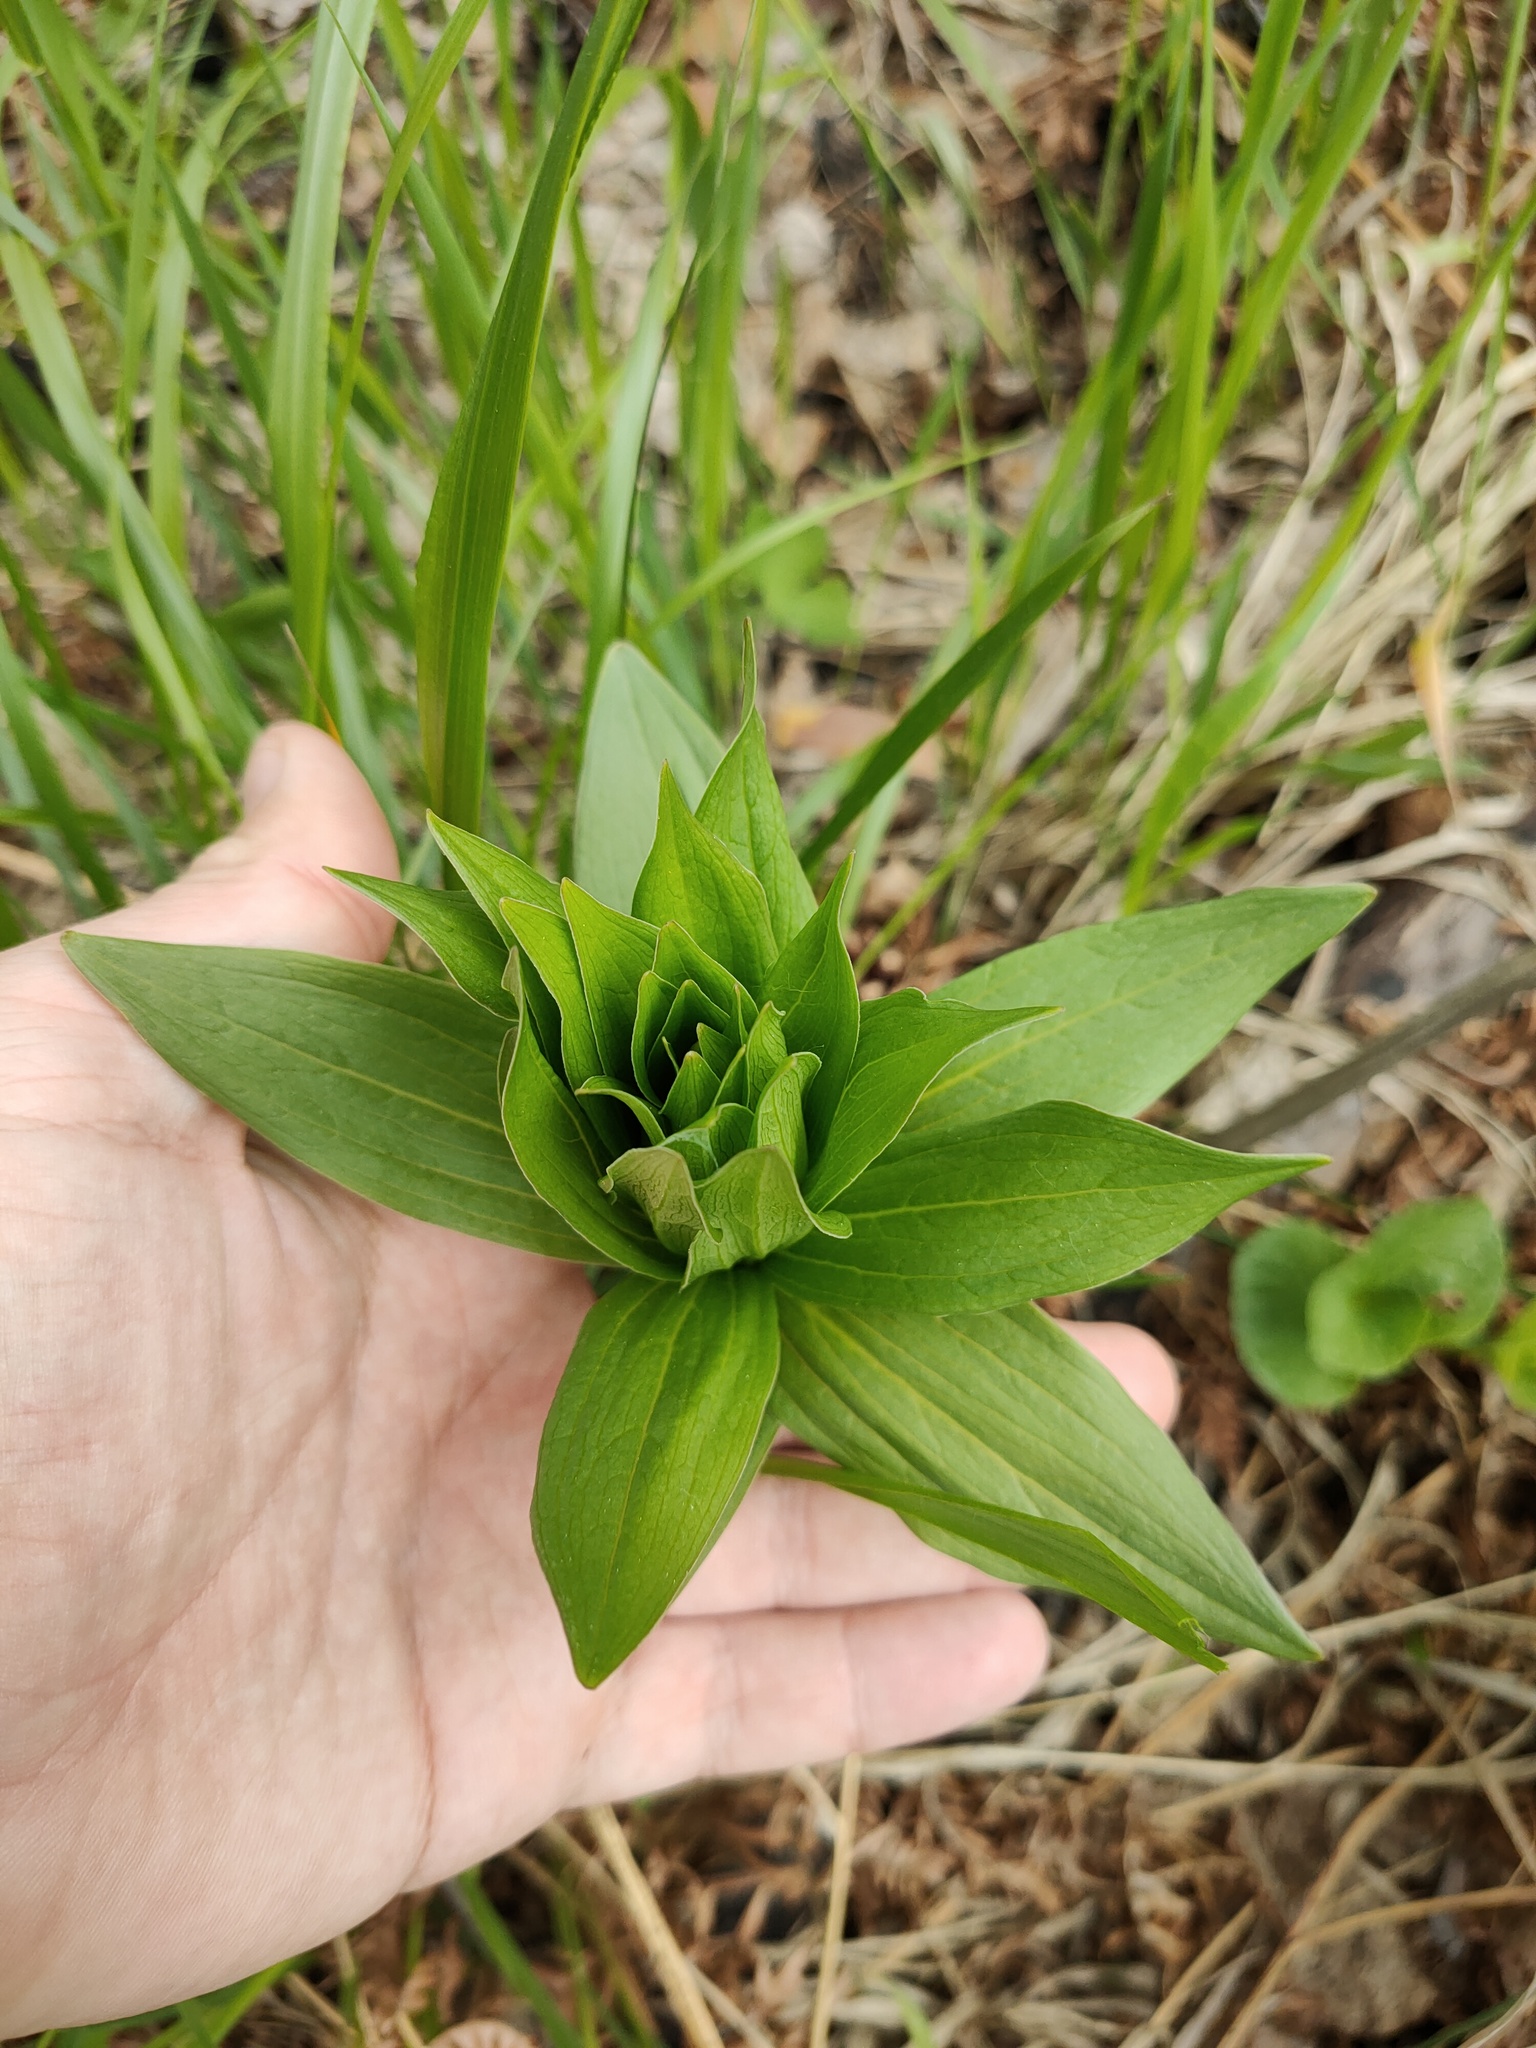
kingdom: Plantae
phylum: Tracheophyta
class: Liliopsida
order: Liliales
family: Liliaceae
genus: Lilium
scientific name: Lilium martagon
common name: Martagon lily
